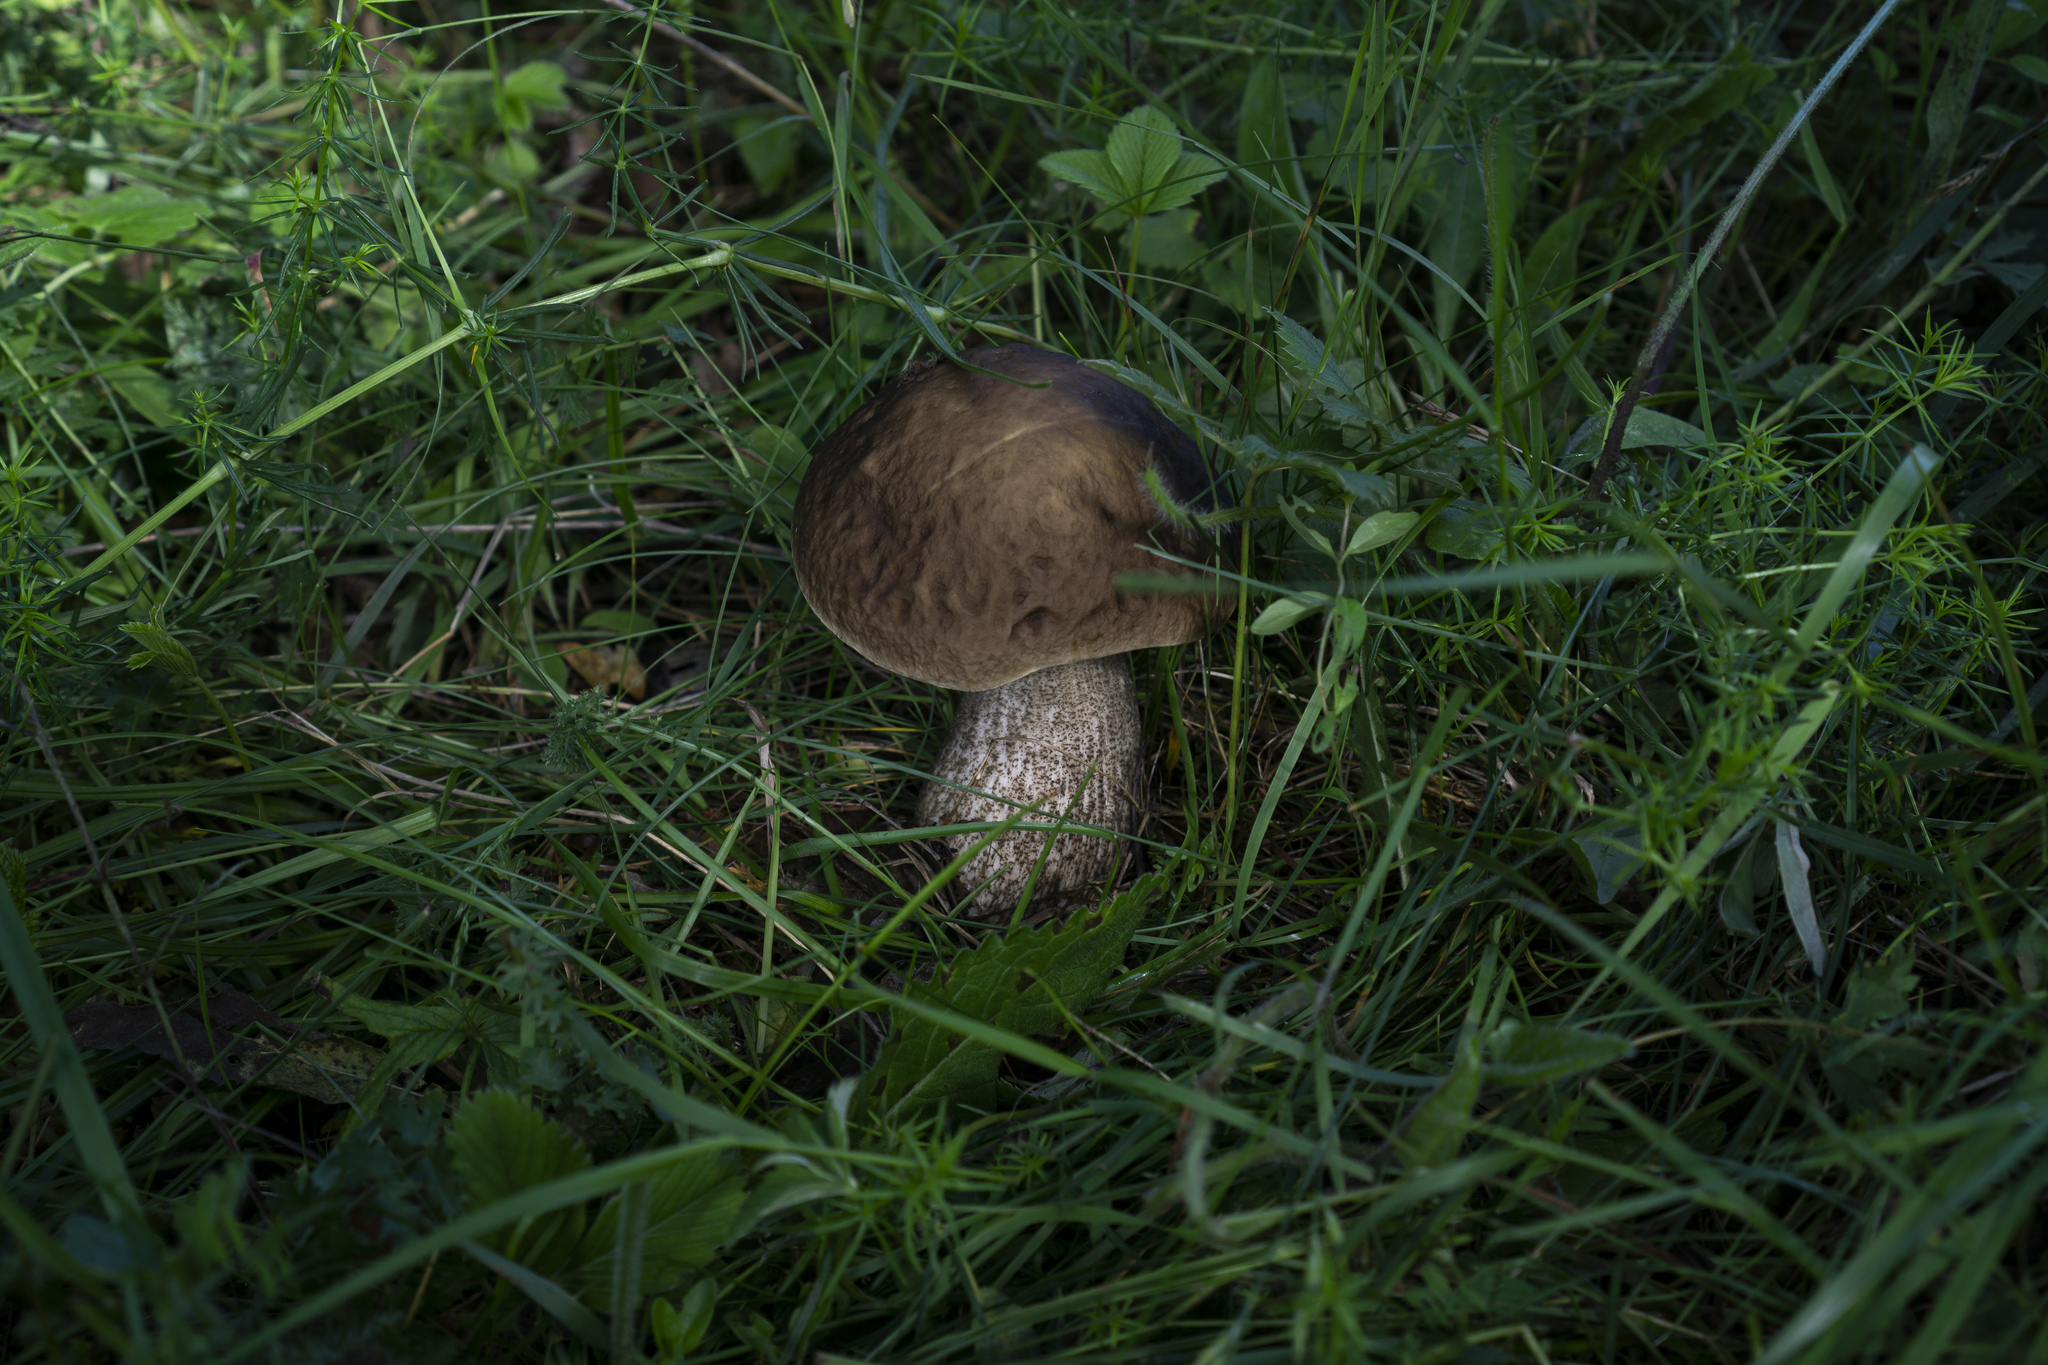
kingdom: Fungi
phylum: Basidiomycota
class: Agaricomycetes
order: Boletales
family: Boletaceae
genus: Leccinum
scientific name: Leccinum scabrum
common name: Blushing bolete
